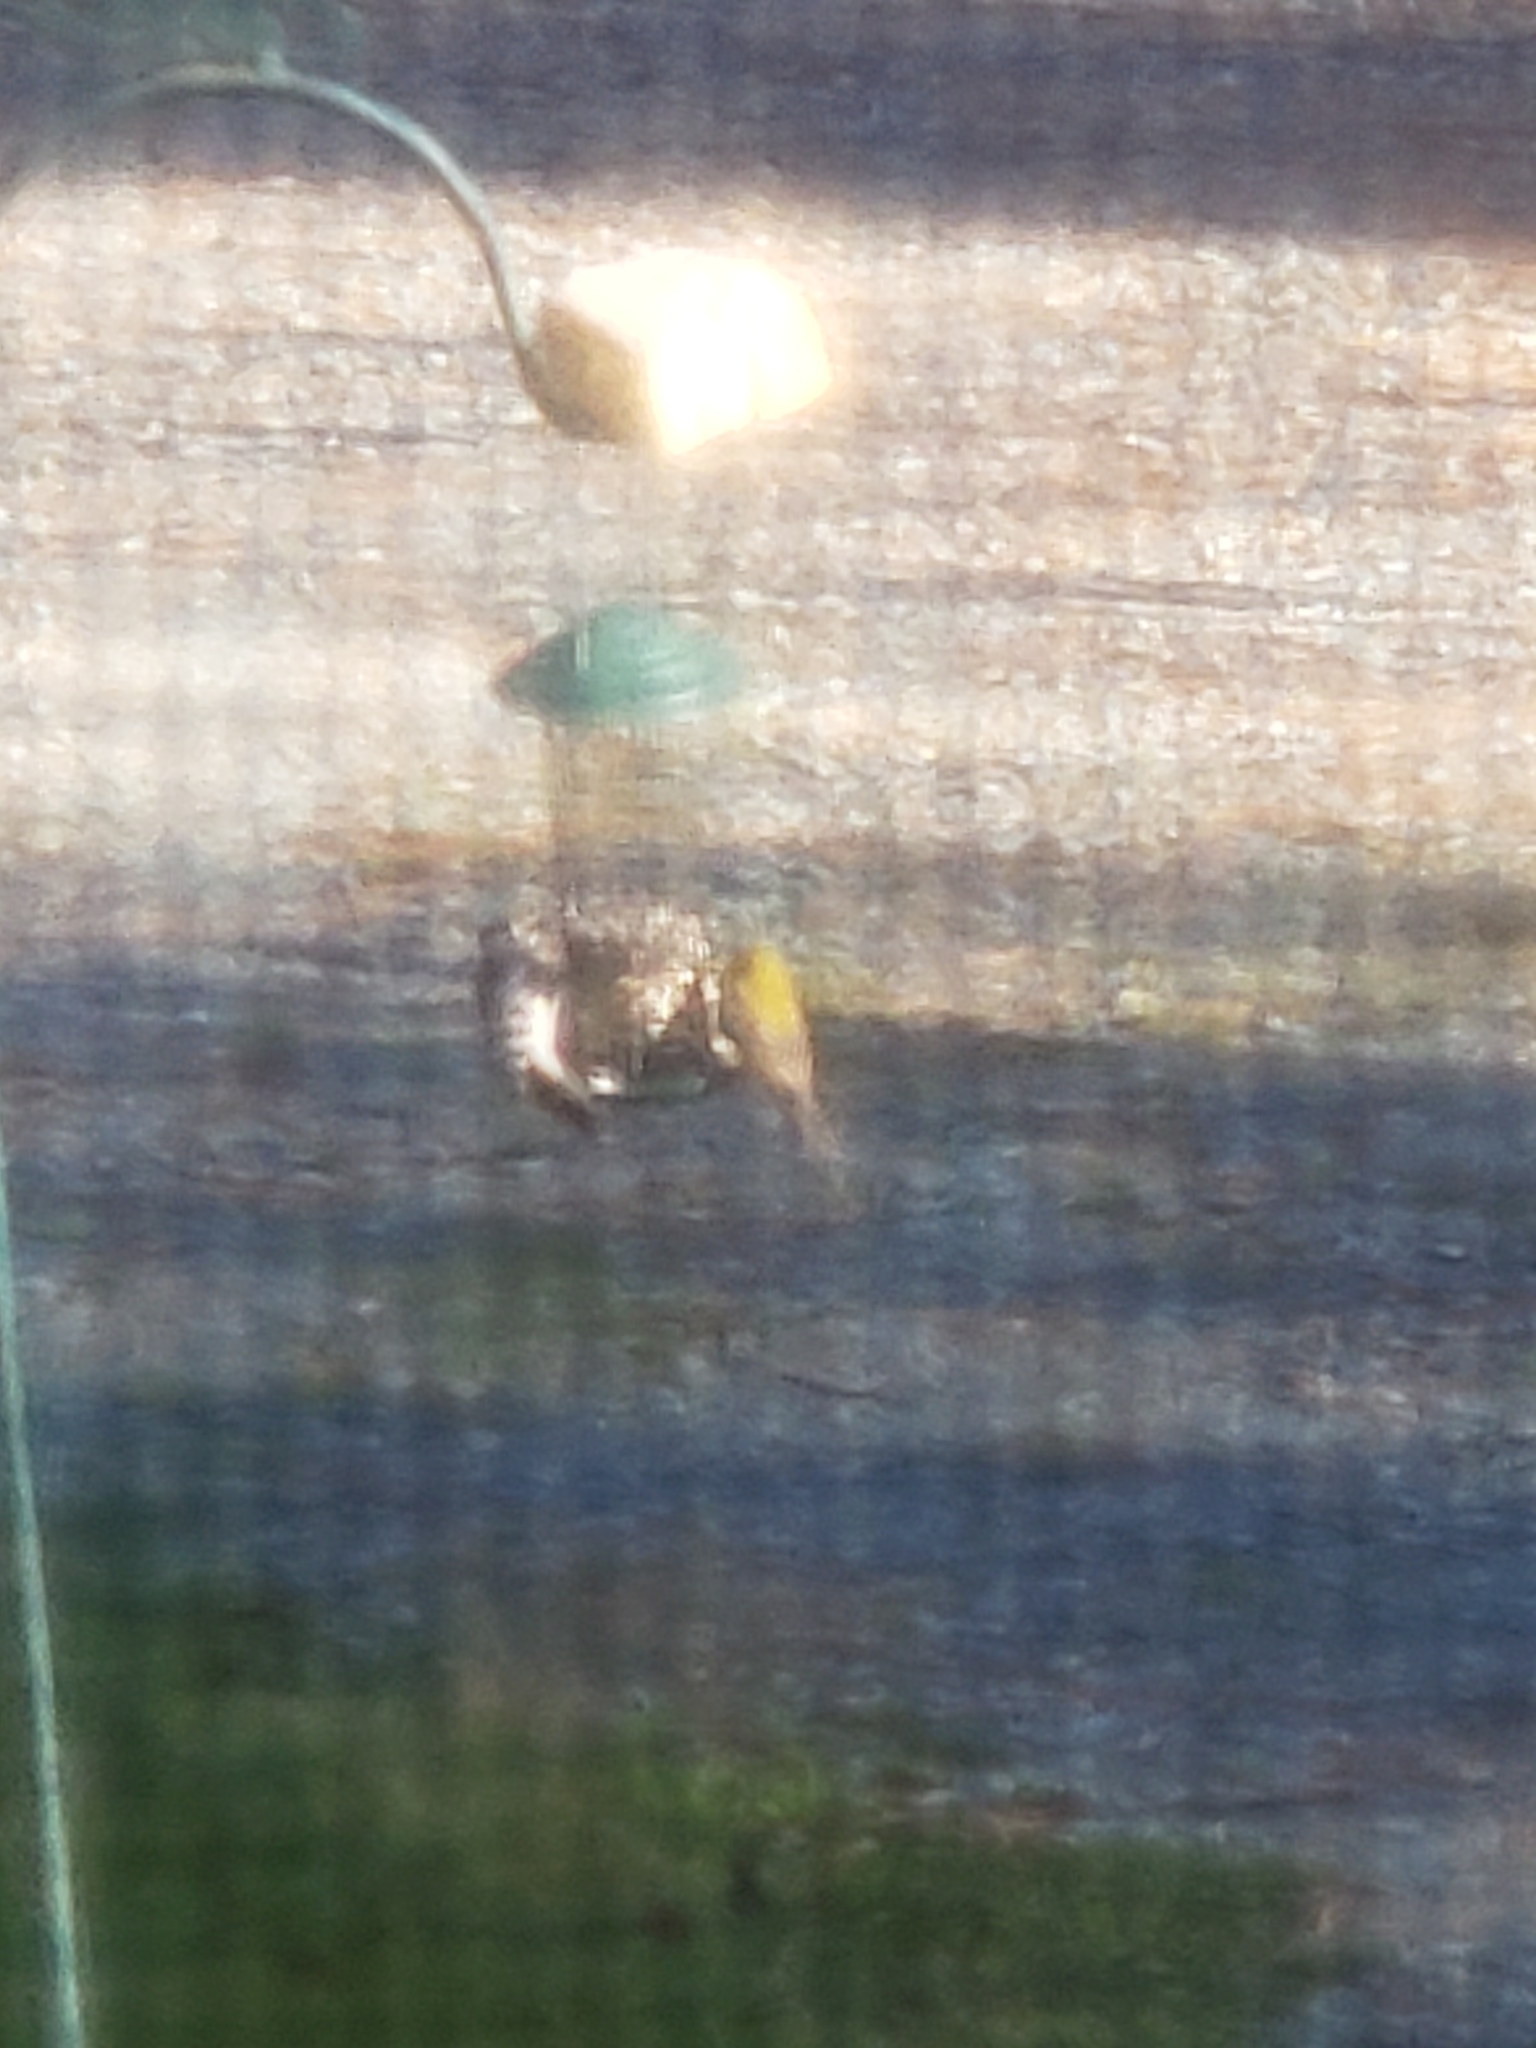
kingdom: Animalia
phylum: Chordata
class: Aves
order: Passeriformes
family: Parulidae
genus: Setophaga
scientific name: Setophaga pinus
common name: Pine warbler
